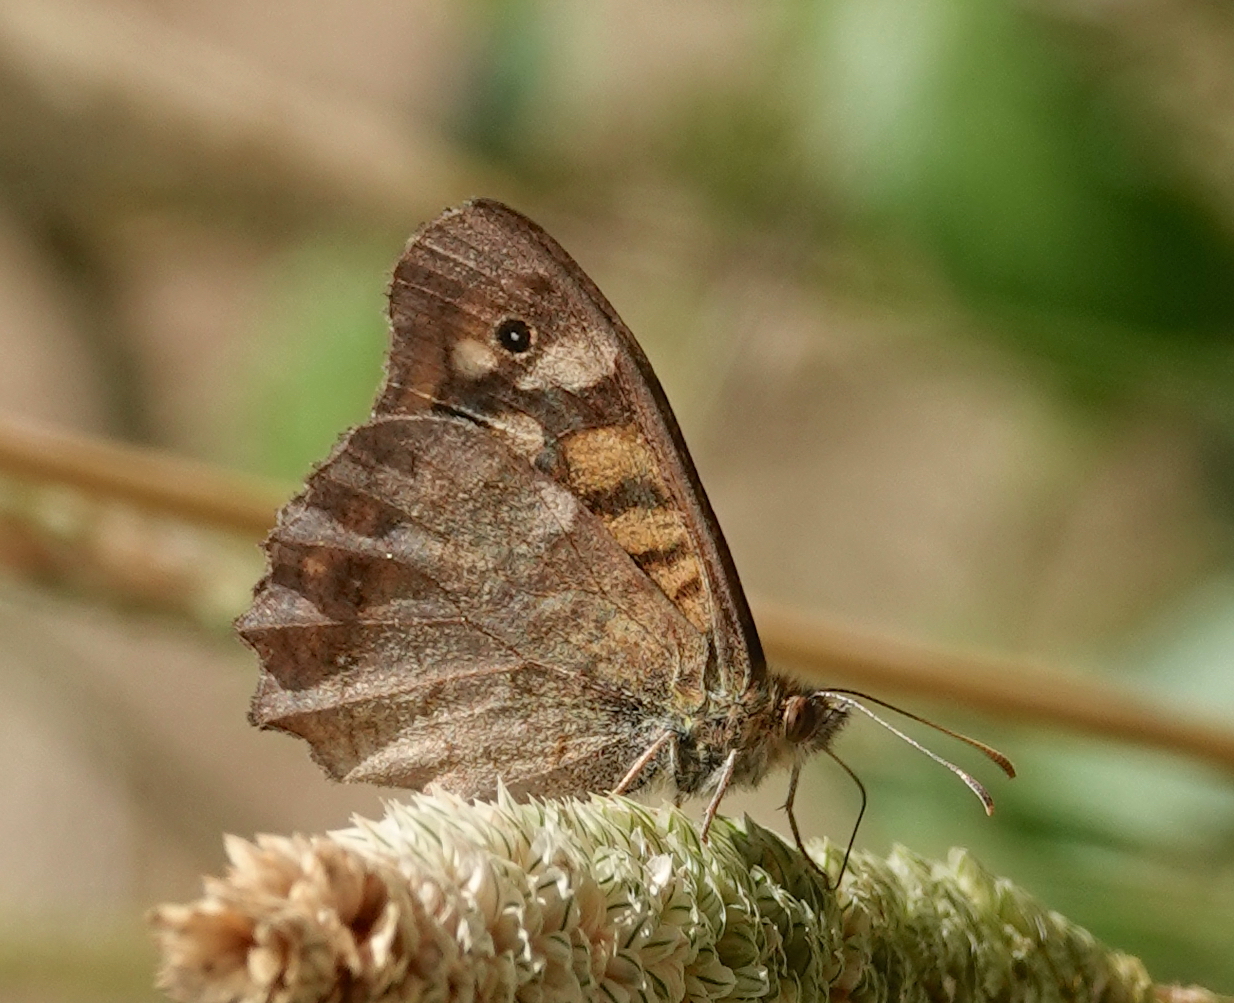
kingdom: Animalia
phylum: Arthropoda
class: Insecta
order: Lepidoptera
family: Nymphalidae
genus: Pararge
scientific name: Pararge aegeria
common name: Speckled wood
